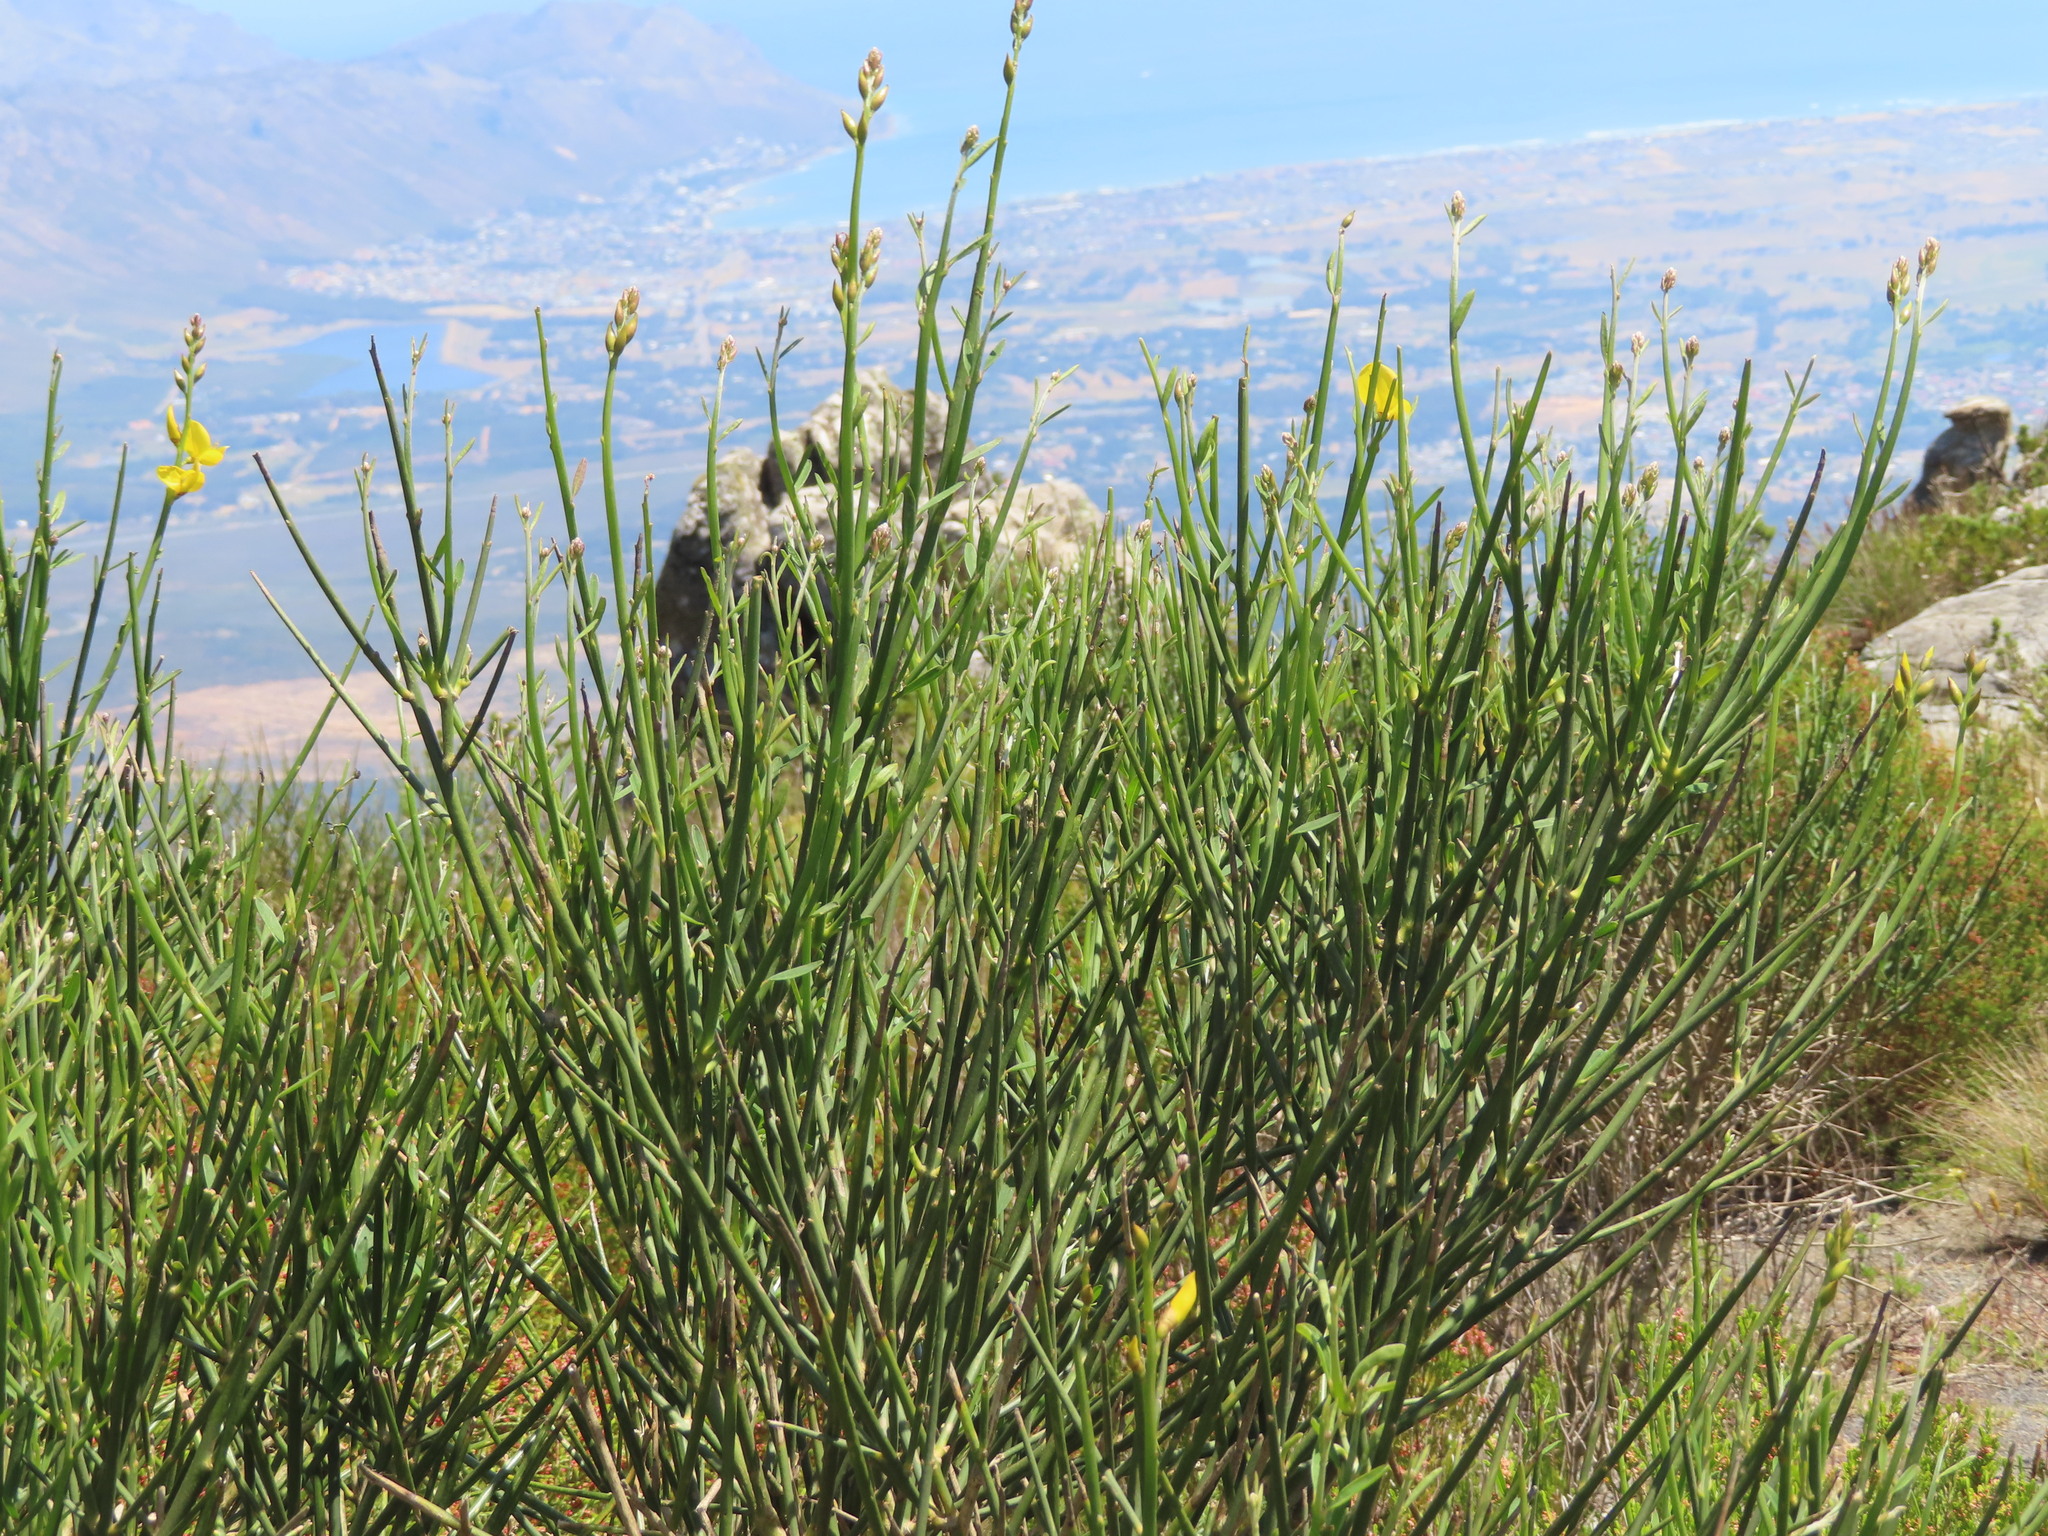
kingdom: Plantae
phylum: Tracheophyta
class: Magnoliopsida
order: Fabales
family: Fabaceae
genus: Spartium
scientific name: Spartium junceum
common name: Spanish broom
